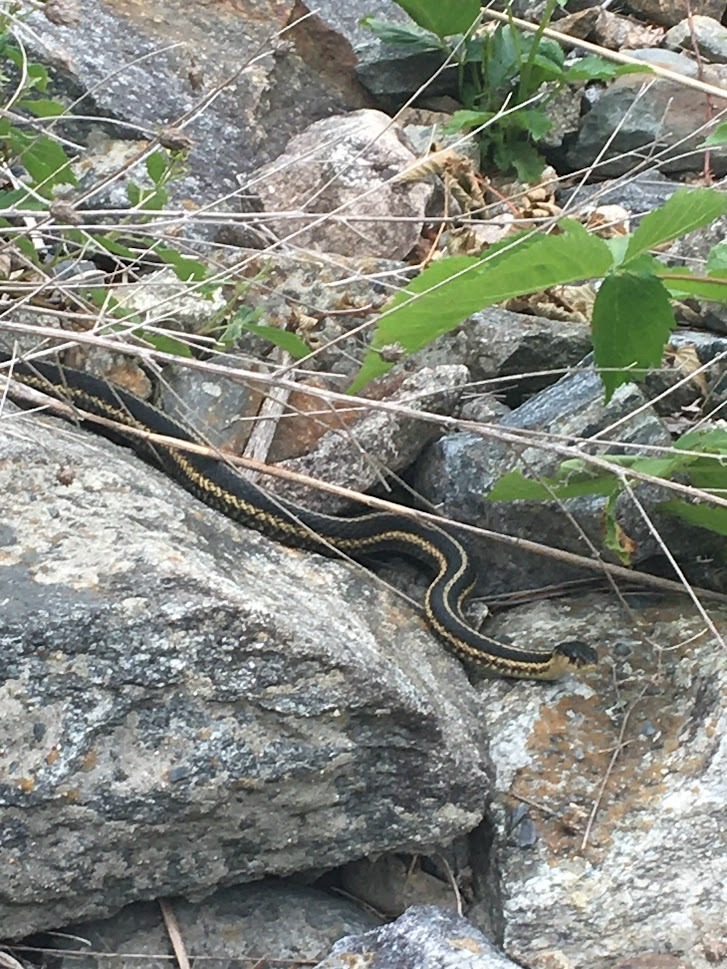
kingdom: Animalia
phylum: Chordata
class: Squamata
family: Colubridae
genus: Thamnophis
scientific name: Thamnophis sirtalis
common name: Common garter snake
